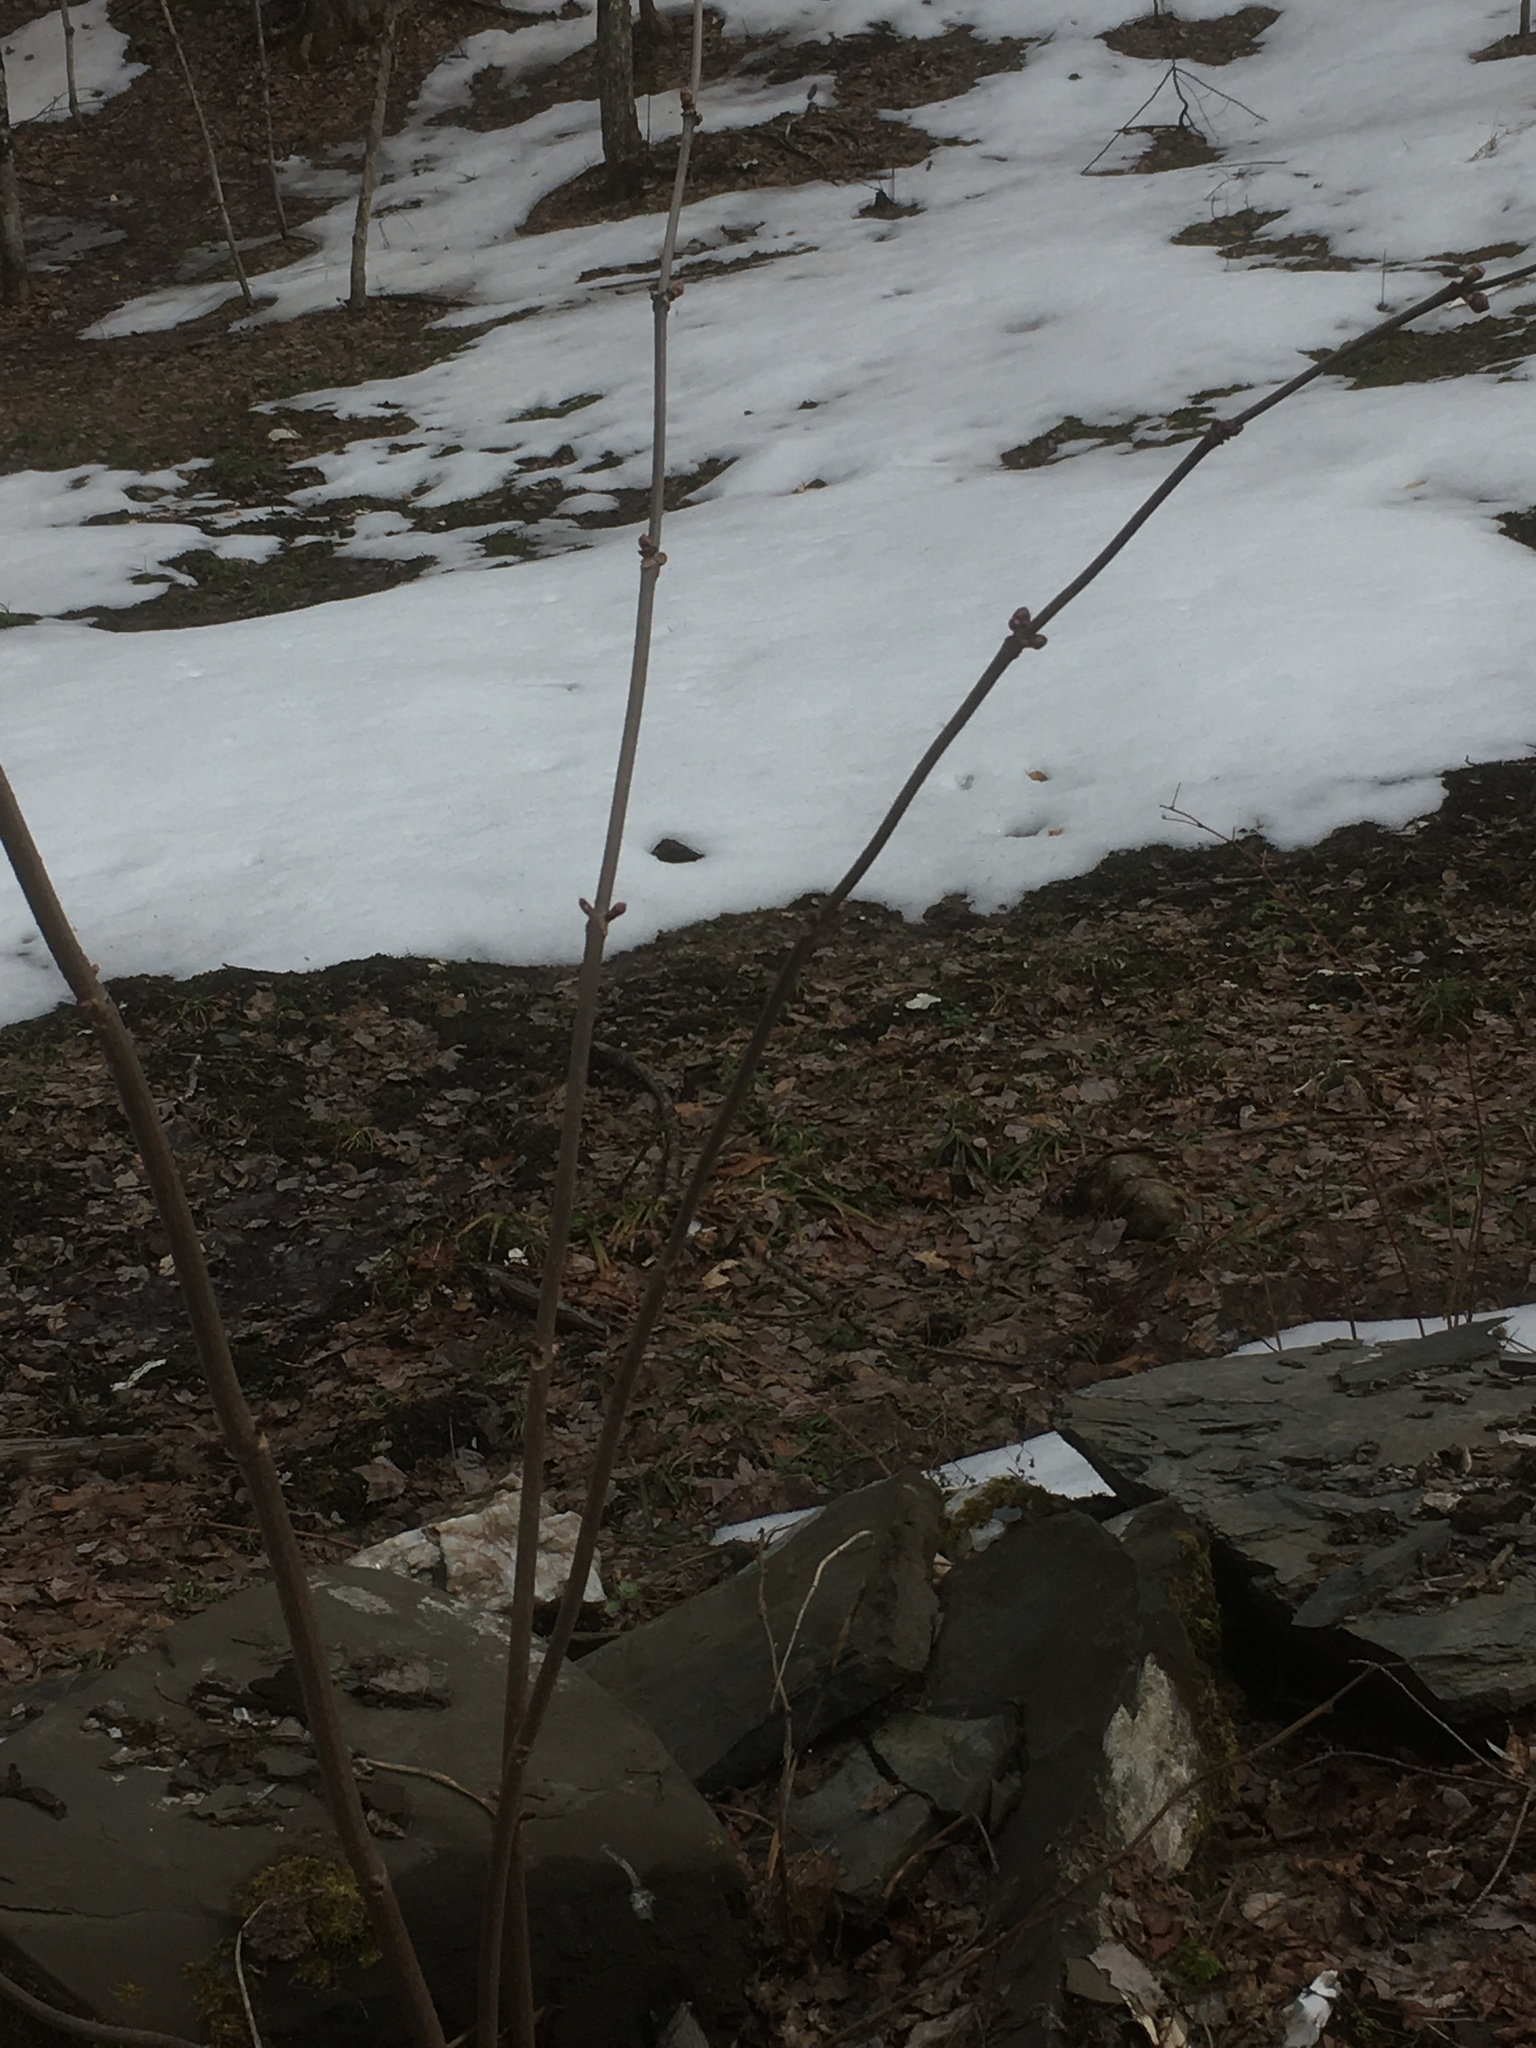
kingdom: Plantae
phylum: Tracheophyta
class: Magnoliopsida
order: Dipsacales
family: Viburnaceae
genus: Sambucus
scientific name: Sambucus racemosa
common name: Red-berried elder
